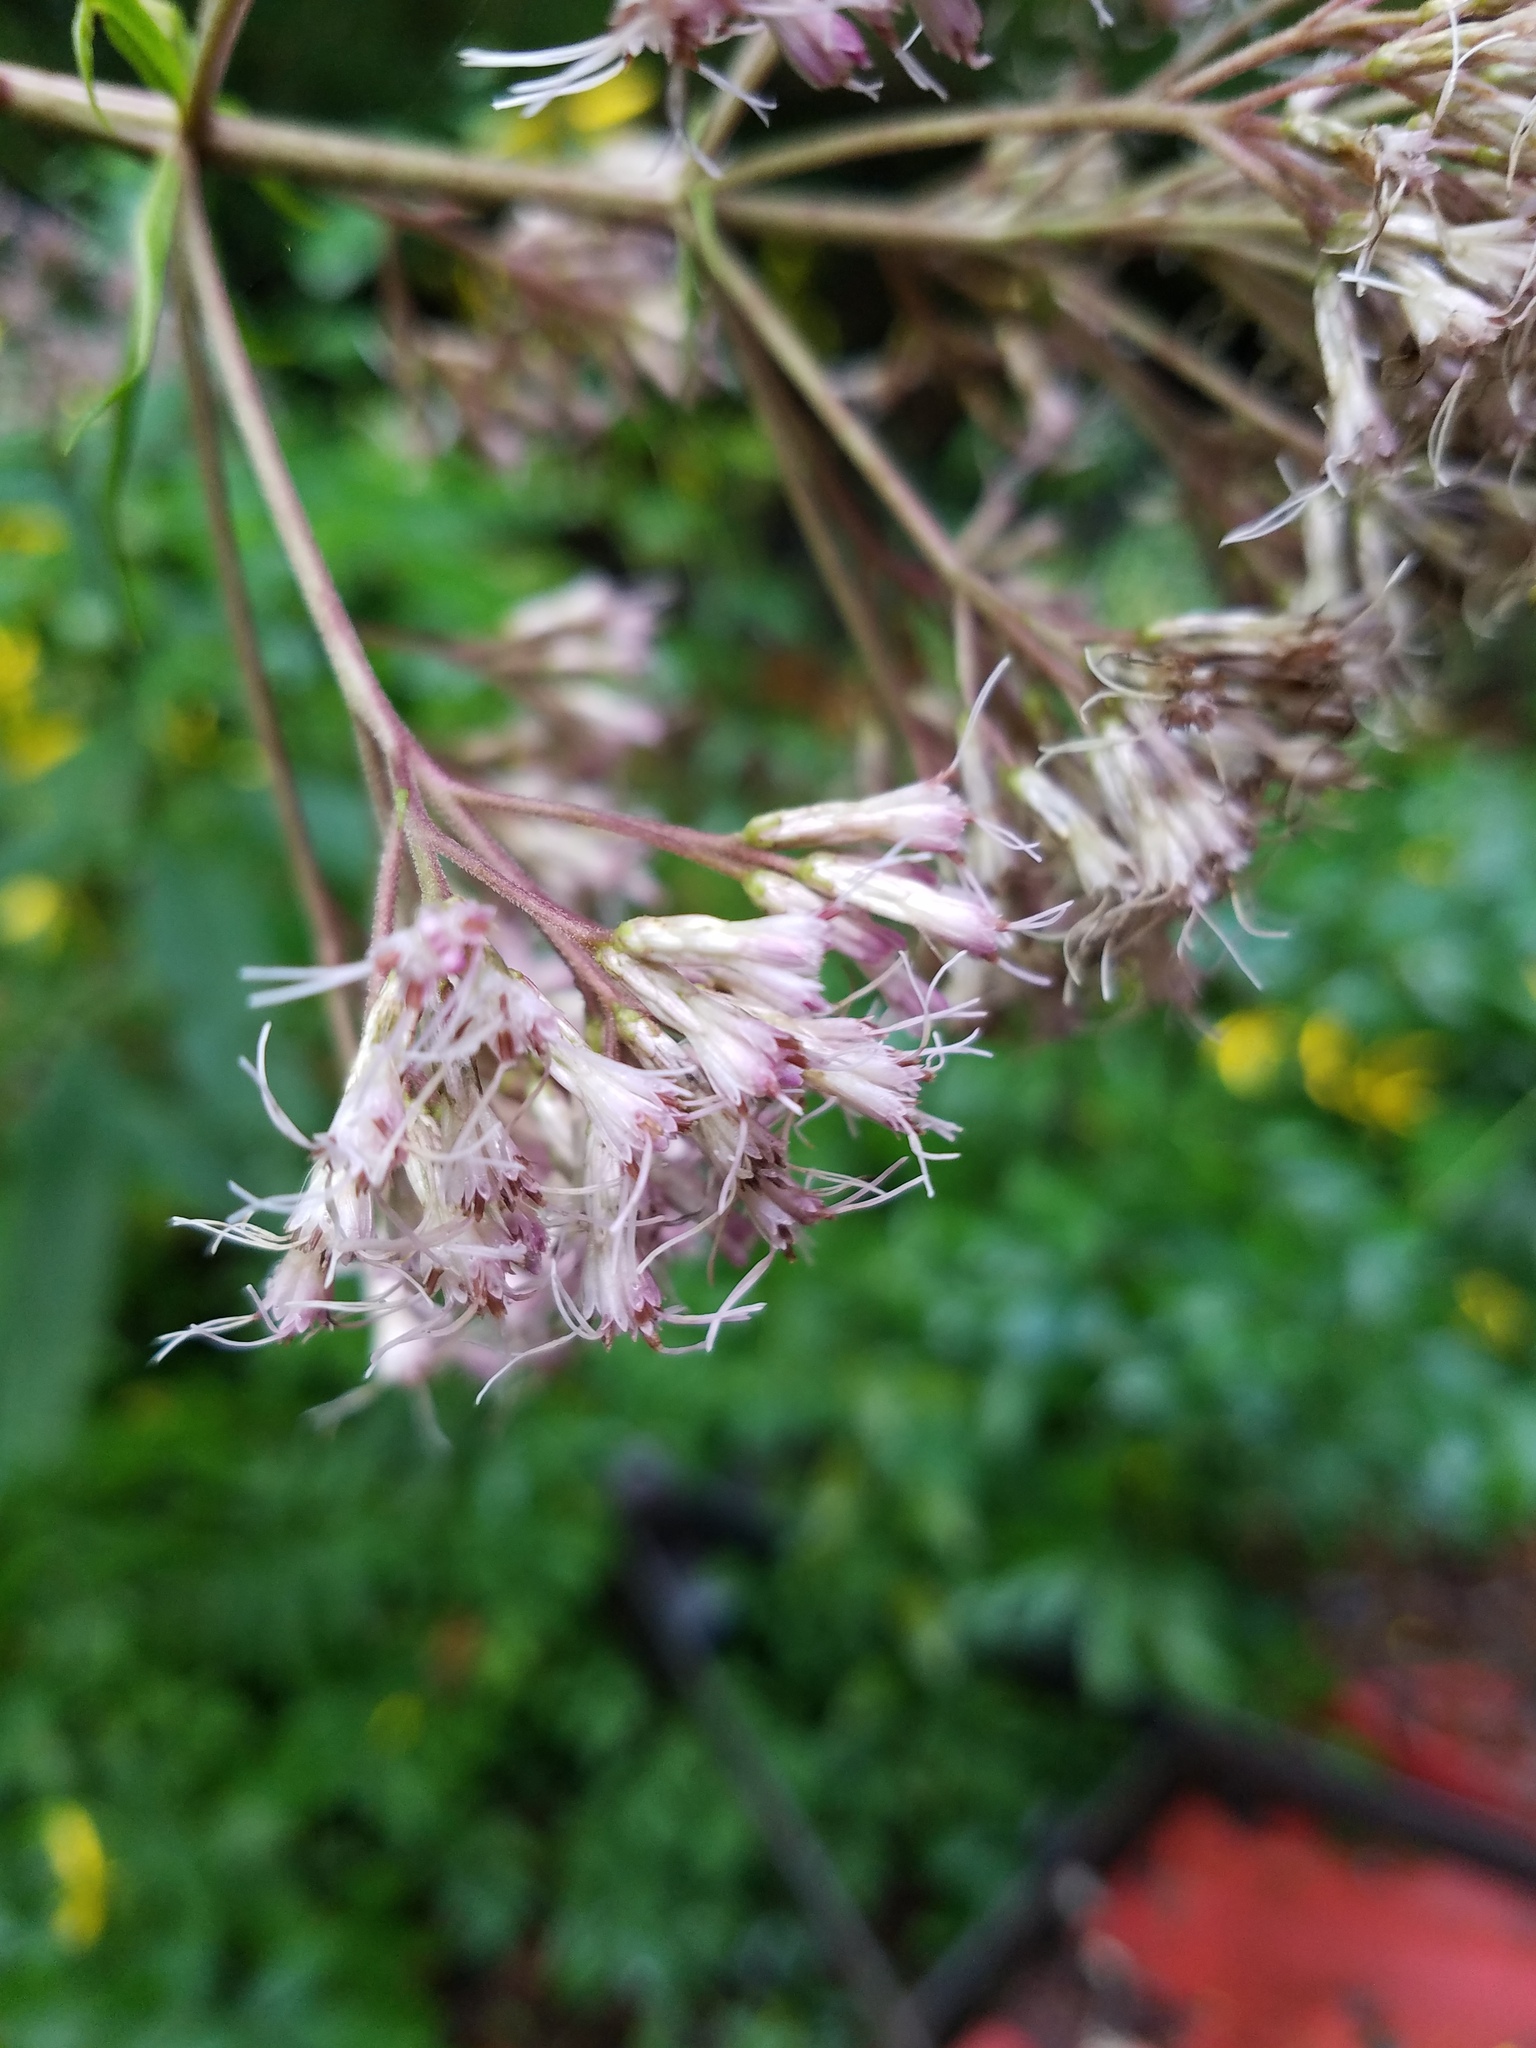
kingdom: Plantae
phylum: Tracheophyta
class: Magnoliopsida
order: Asterales
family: Asteraceae
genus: Eutrochium
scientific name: Eutrochium fistulosum
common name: Trumpetweed
